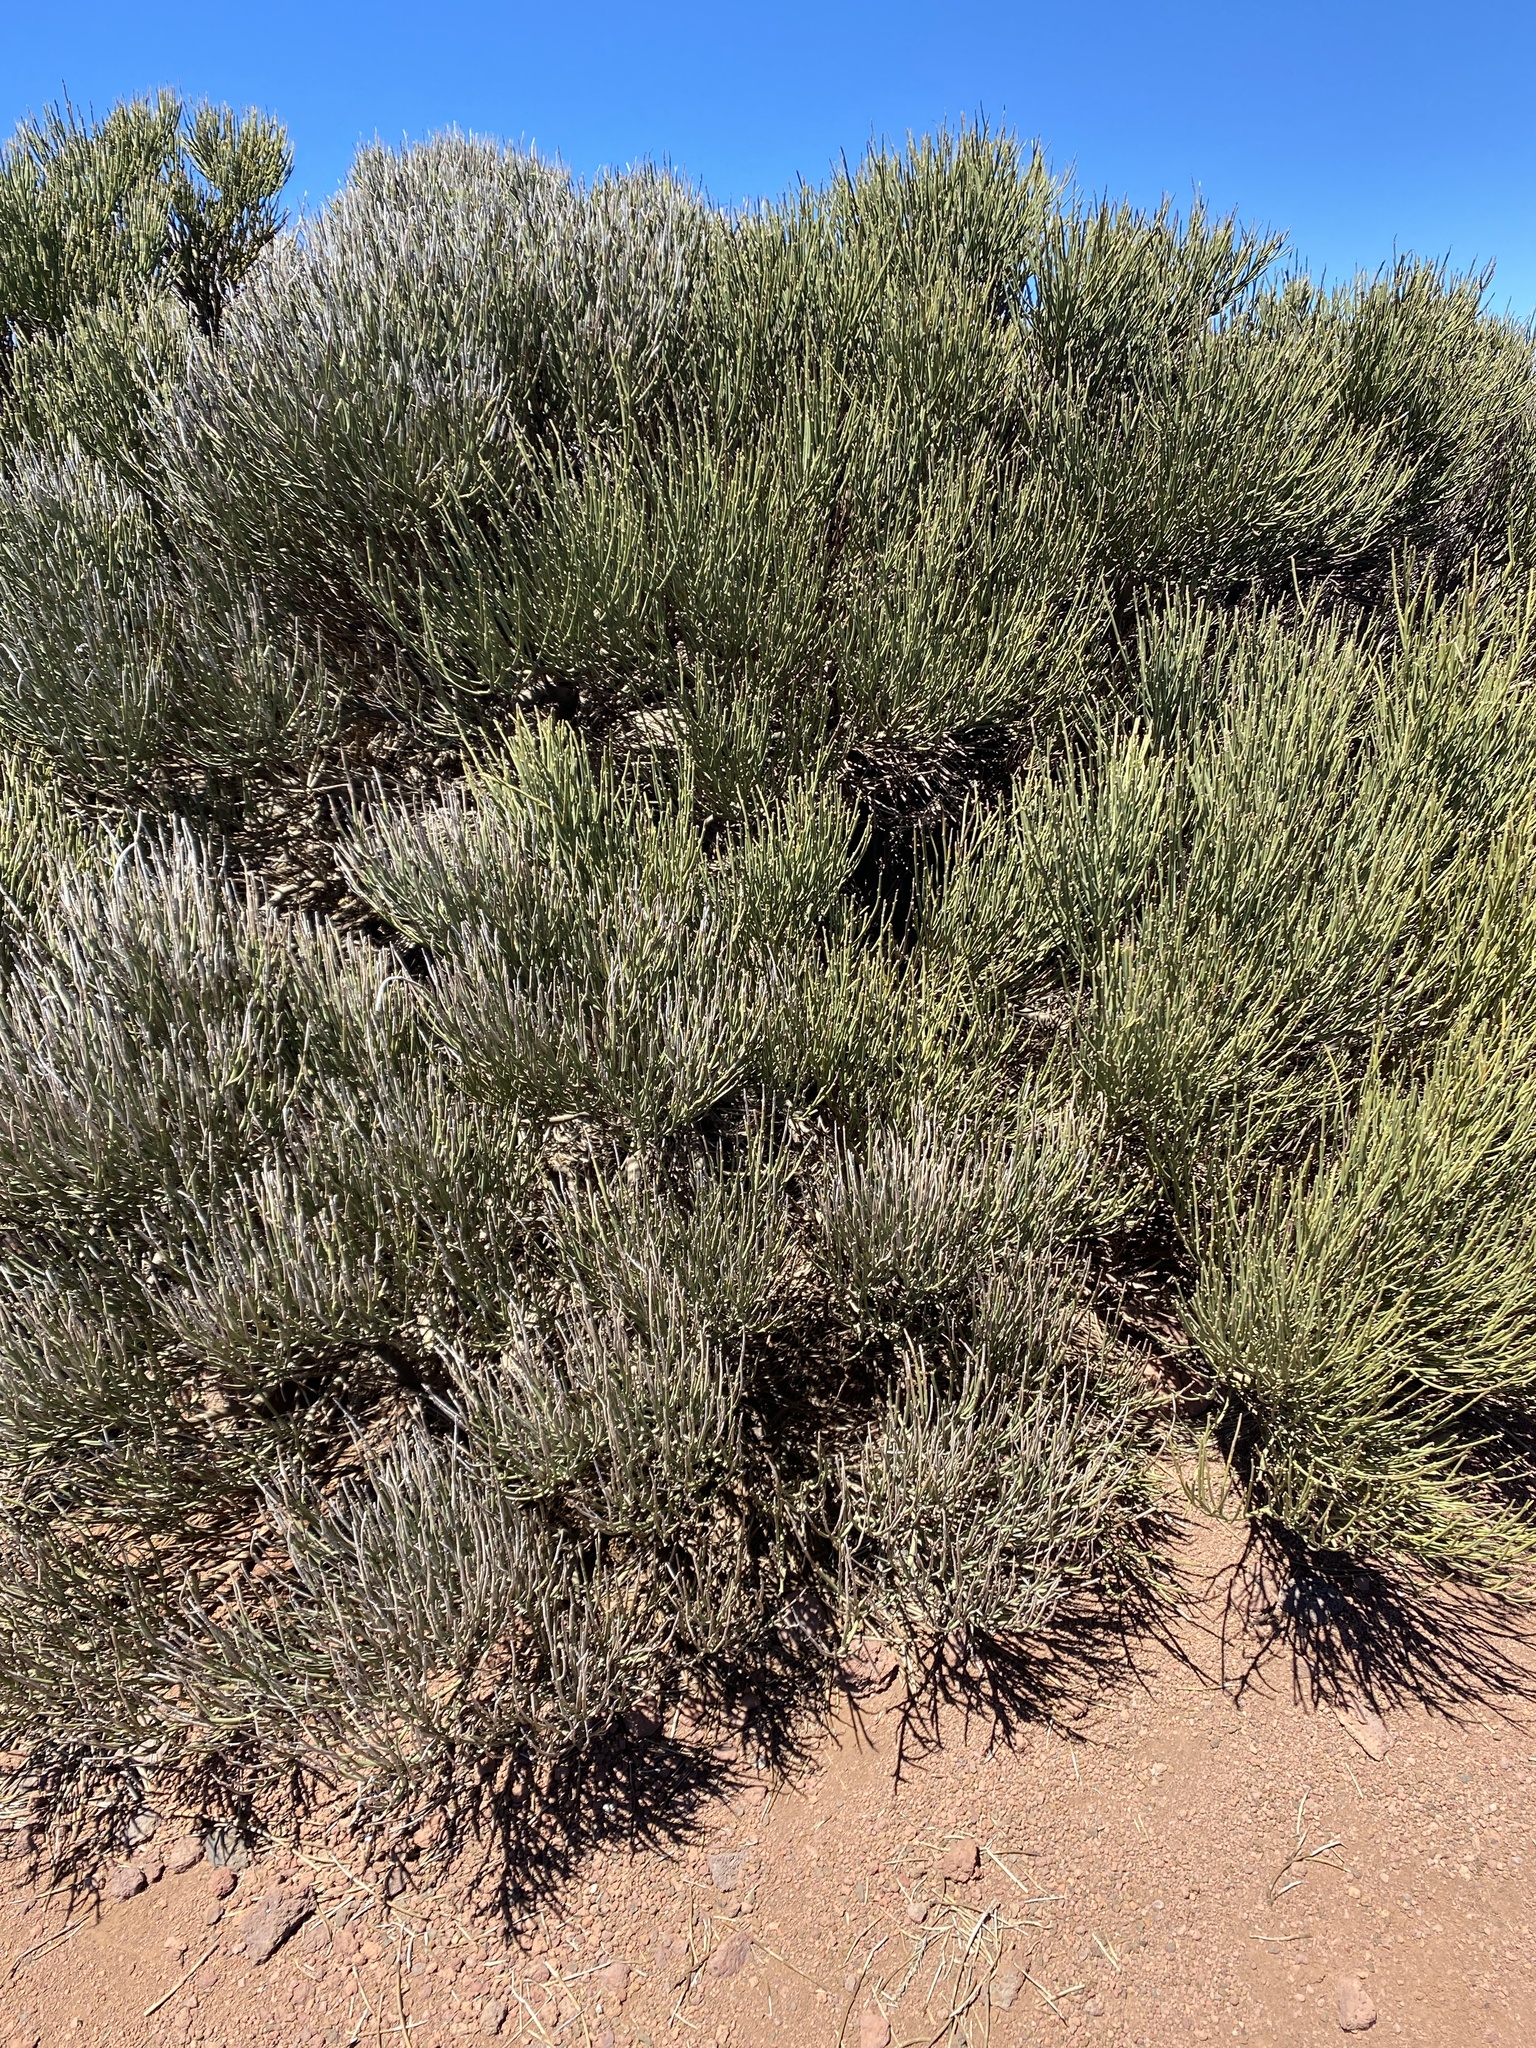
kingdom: Plantae
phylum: Tracheophyta
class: Magnoliopsida
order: Fabales
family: Fabaceae
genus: Cytisus
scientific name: Cytisus supranubius
